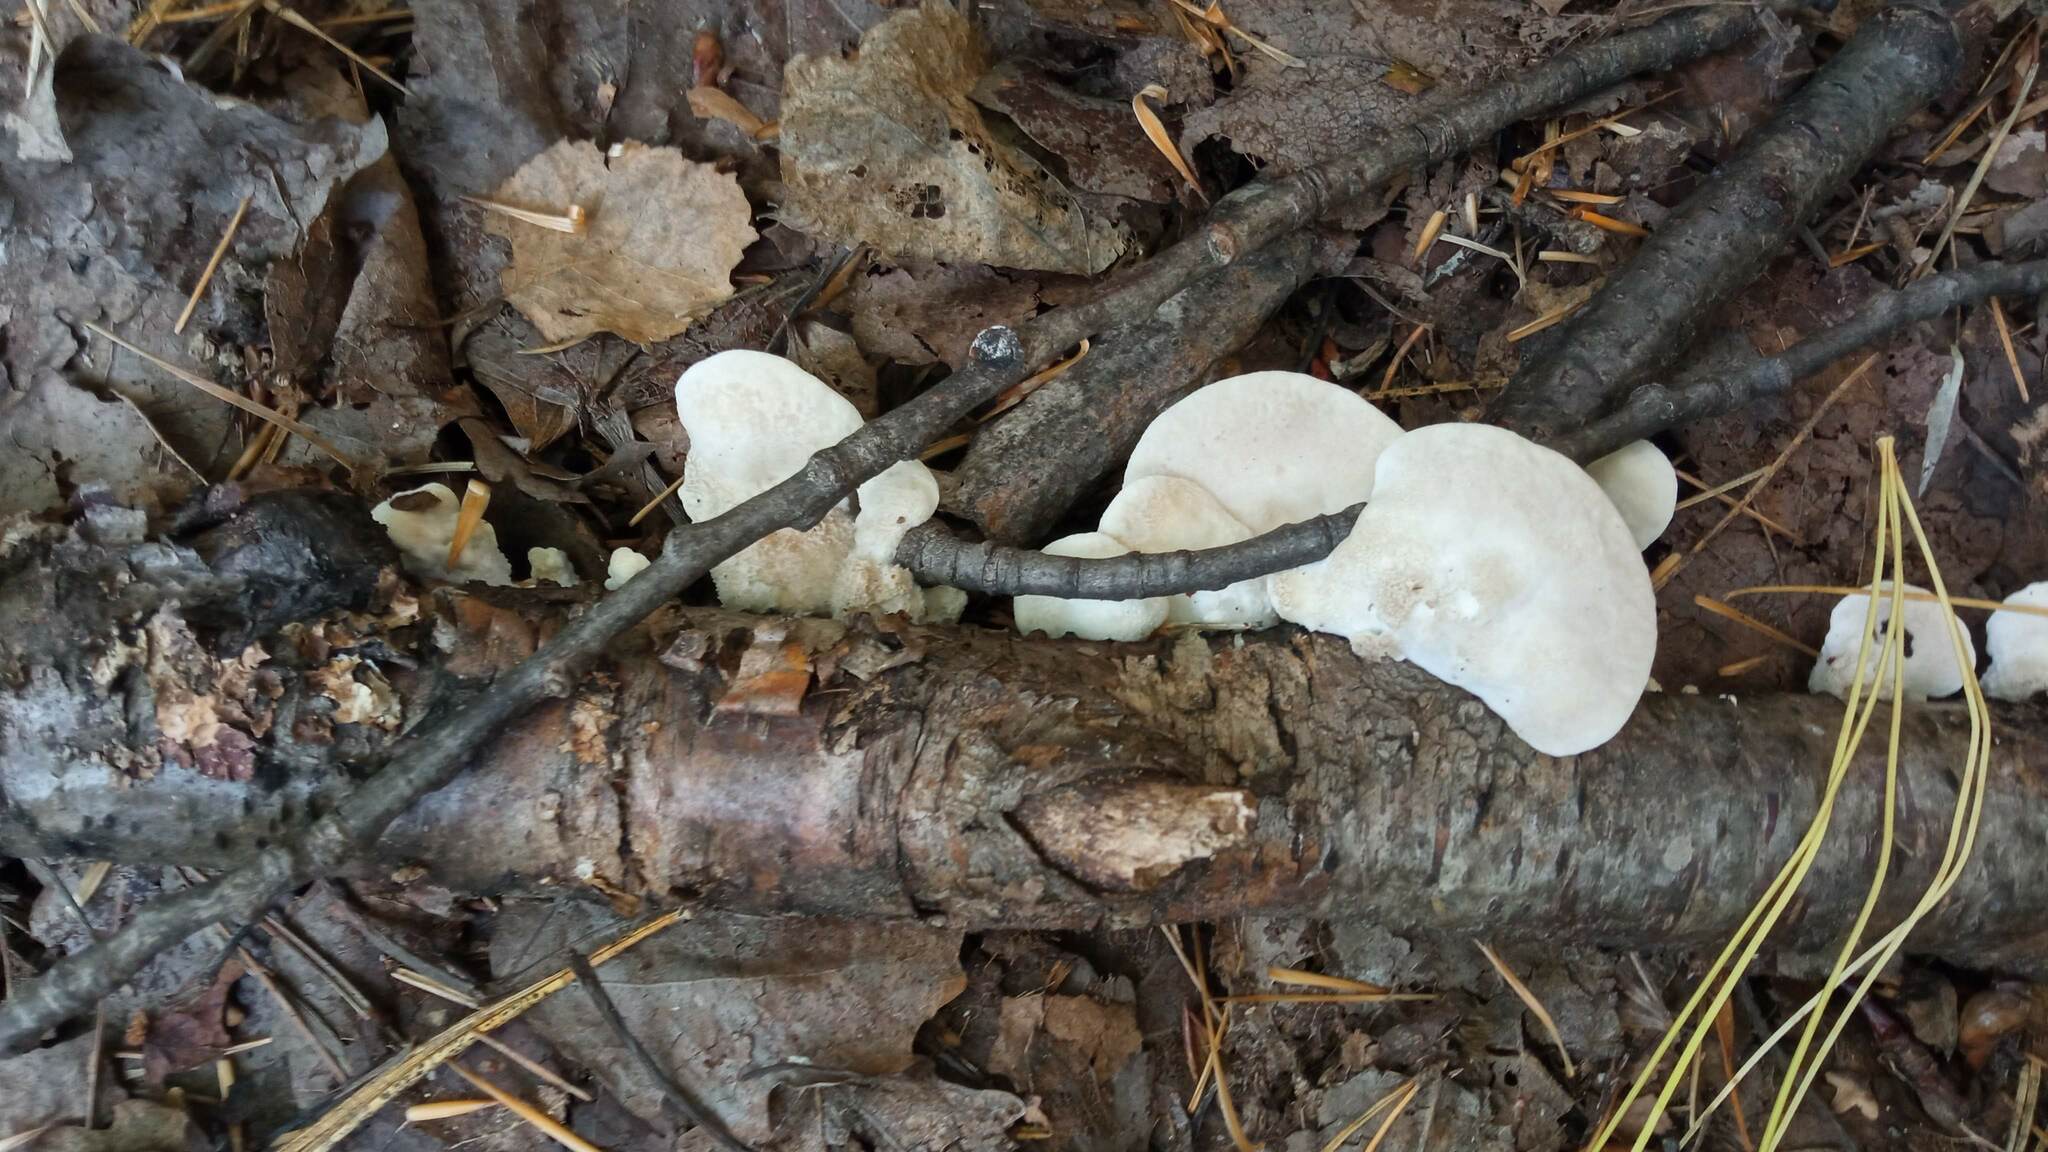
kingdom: Fungi
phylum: Basidiomycota
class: Agaricomycetes
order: Polyporales
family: Incrustoporiaceae
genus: Tyromyces
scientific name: Tyromyces chioneus
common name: White cheese polypore
